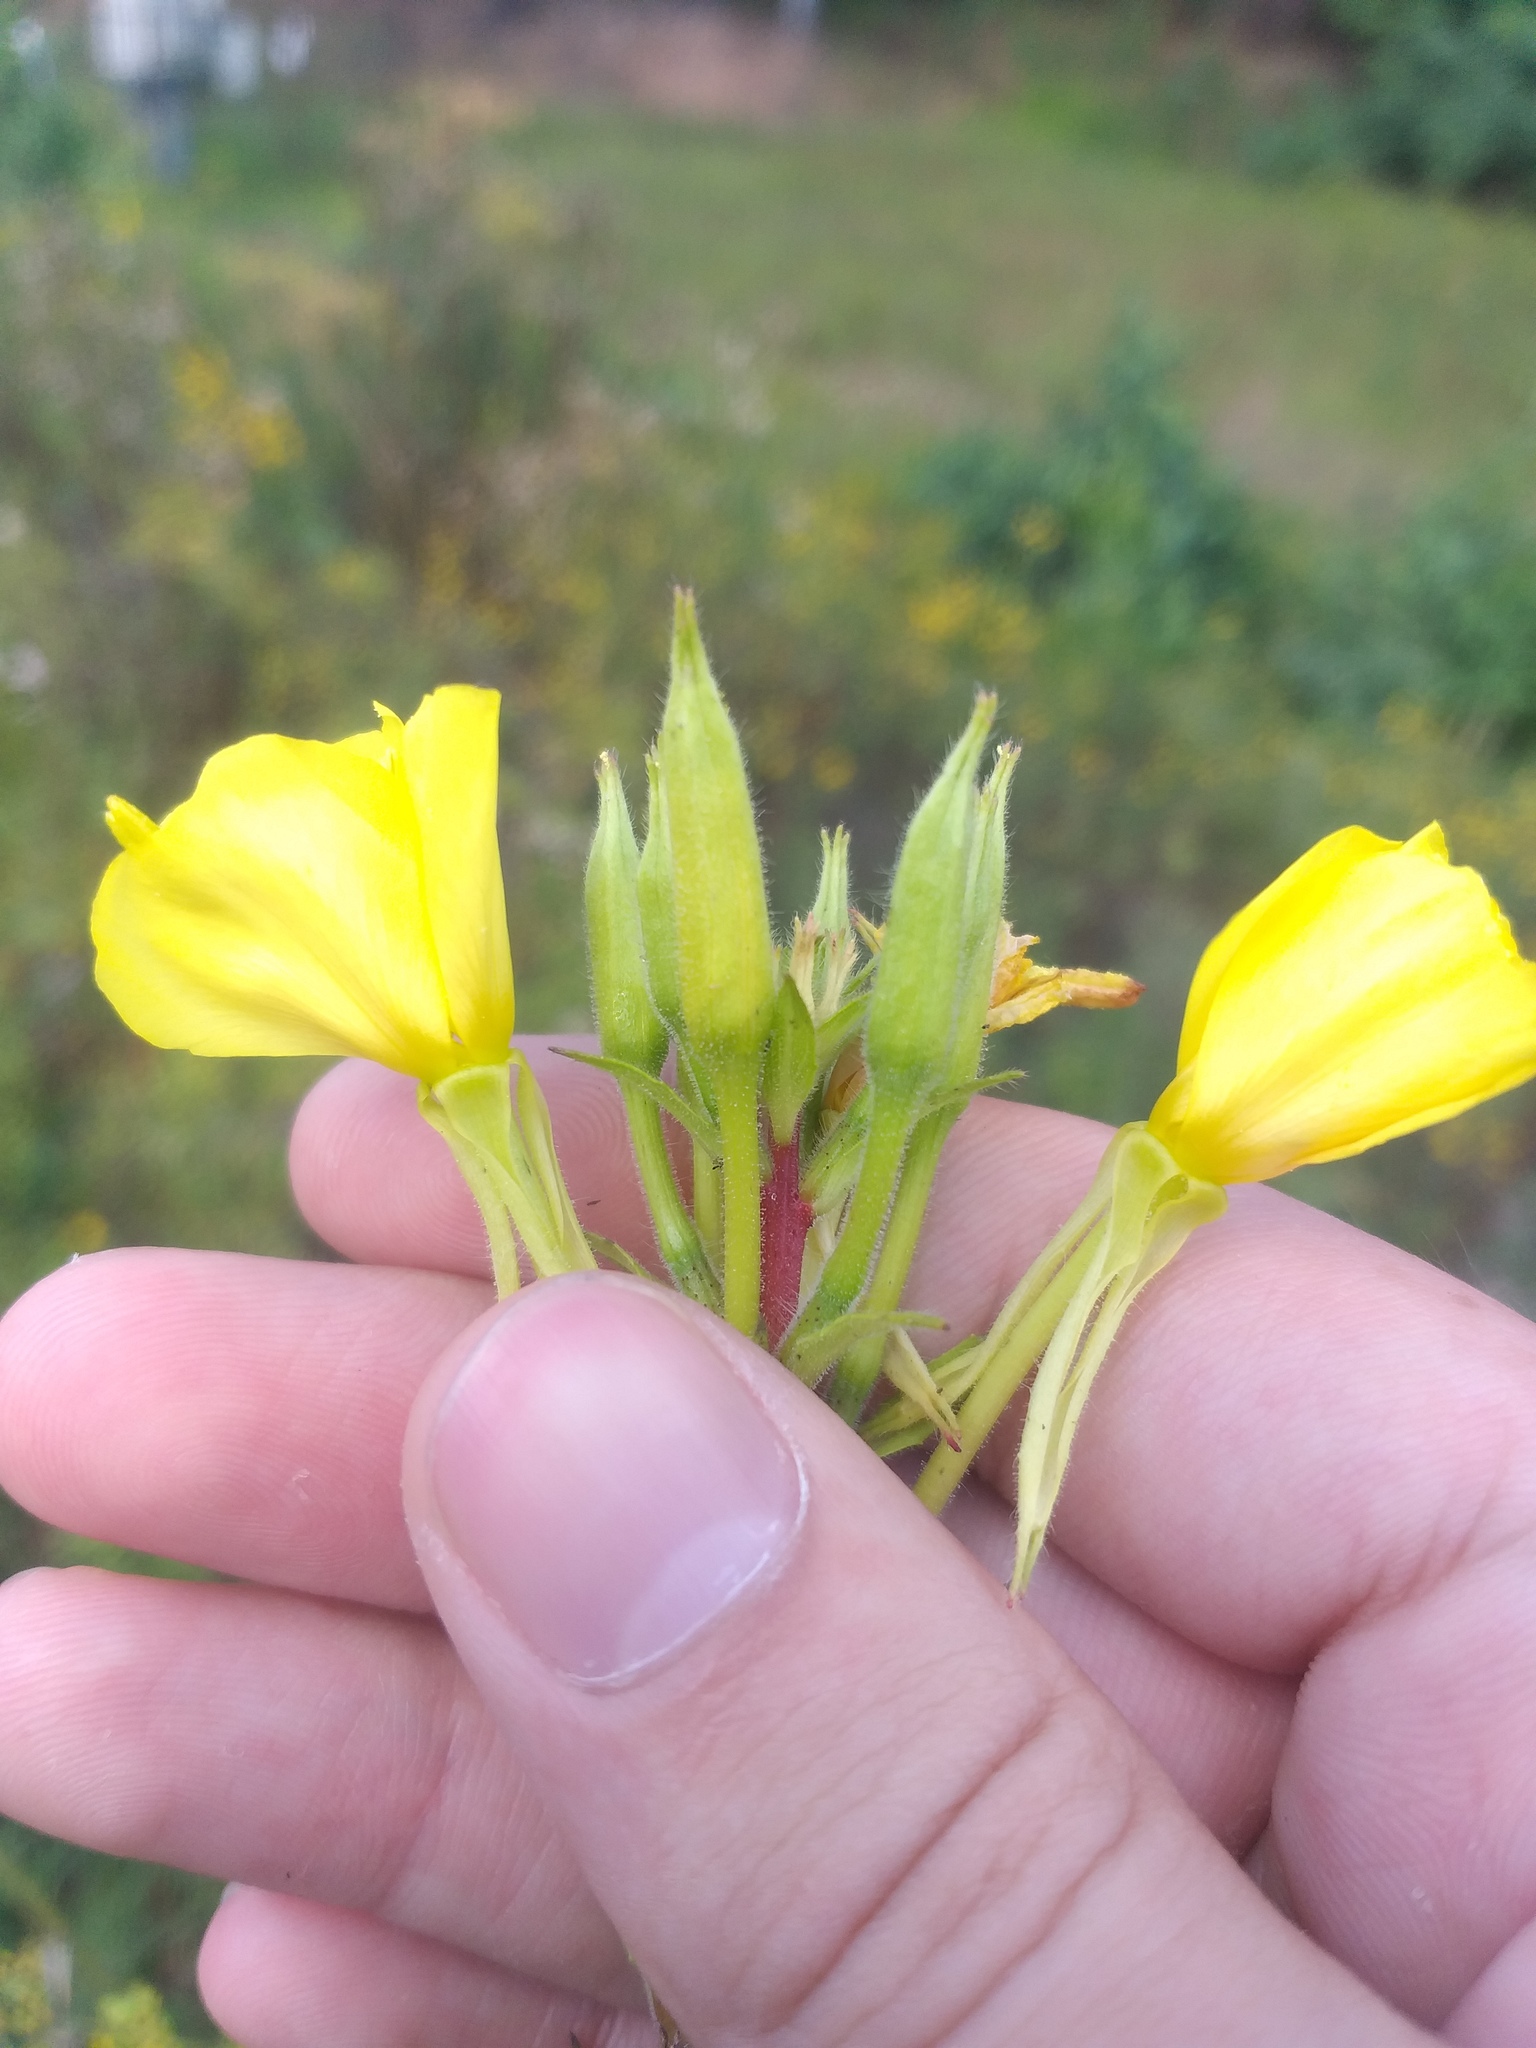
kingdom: Plantae
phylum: Tracheophyta
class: Magnoliopsida
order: Myrtales
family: Onagraceae
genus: Oenothera
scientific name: Oenothera rubricaulis
